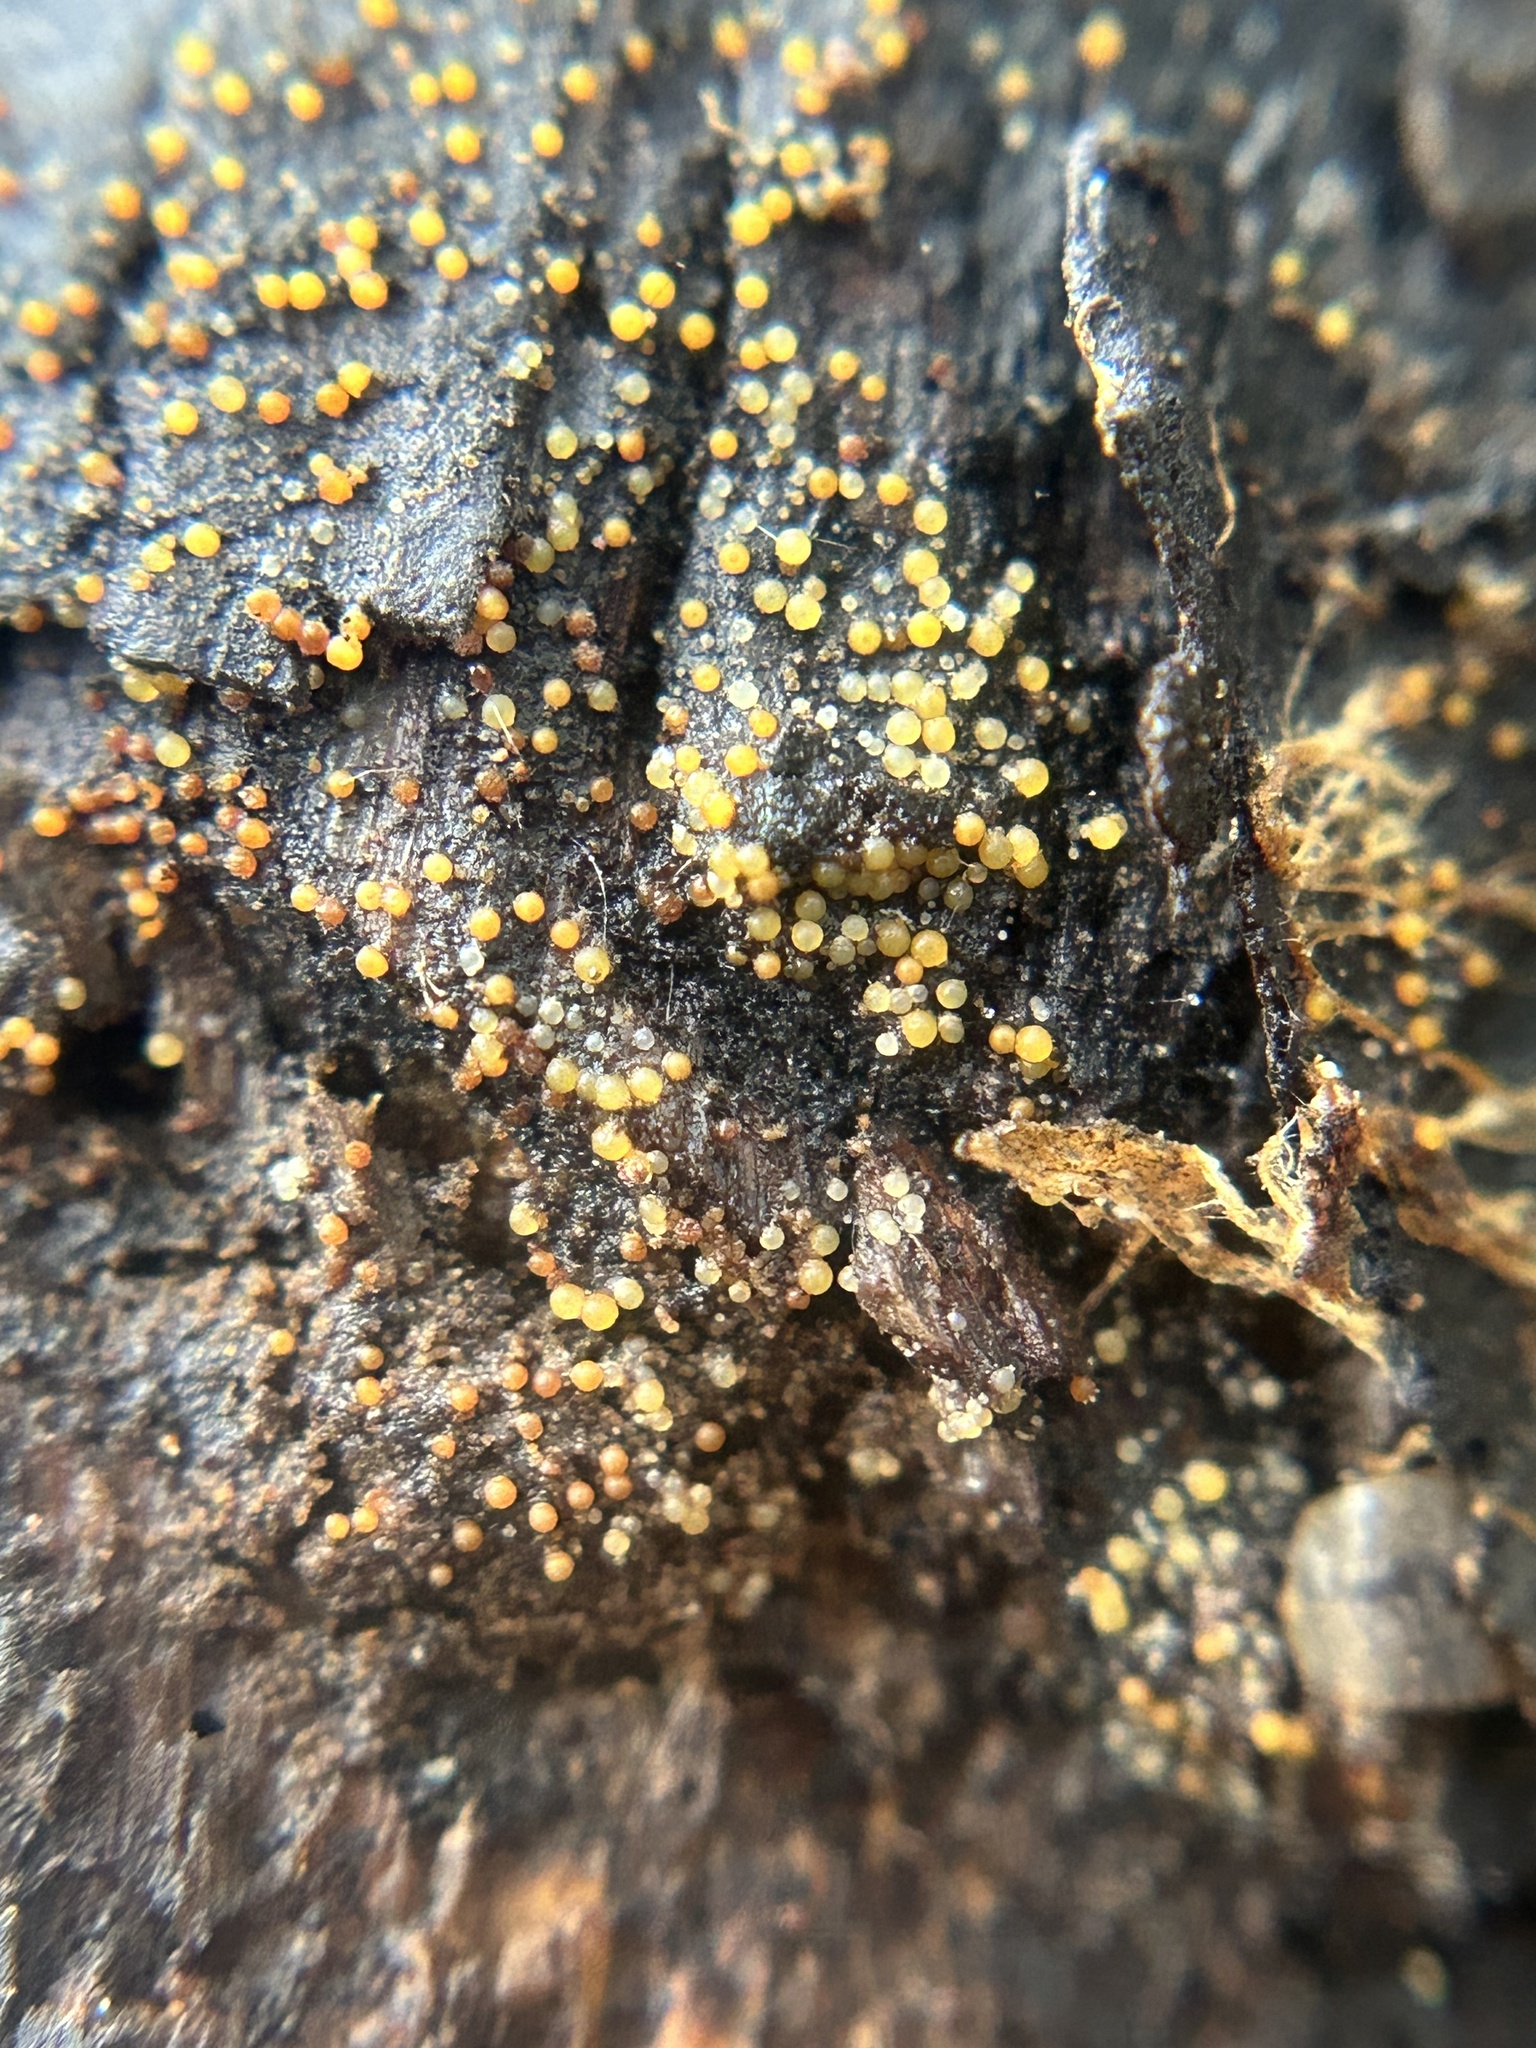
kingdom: Fungi
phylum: Ascomycota
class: Sordariomycetes
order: Hypocreales
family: Nectriaceae
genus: Hydropisphaera
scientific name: Hydropisphaera peziza
